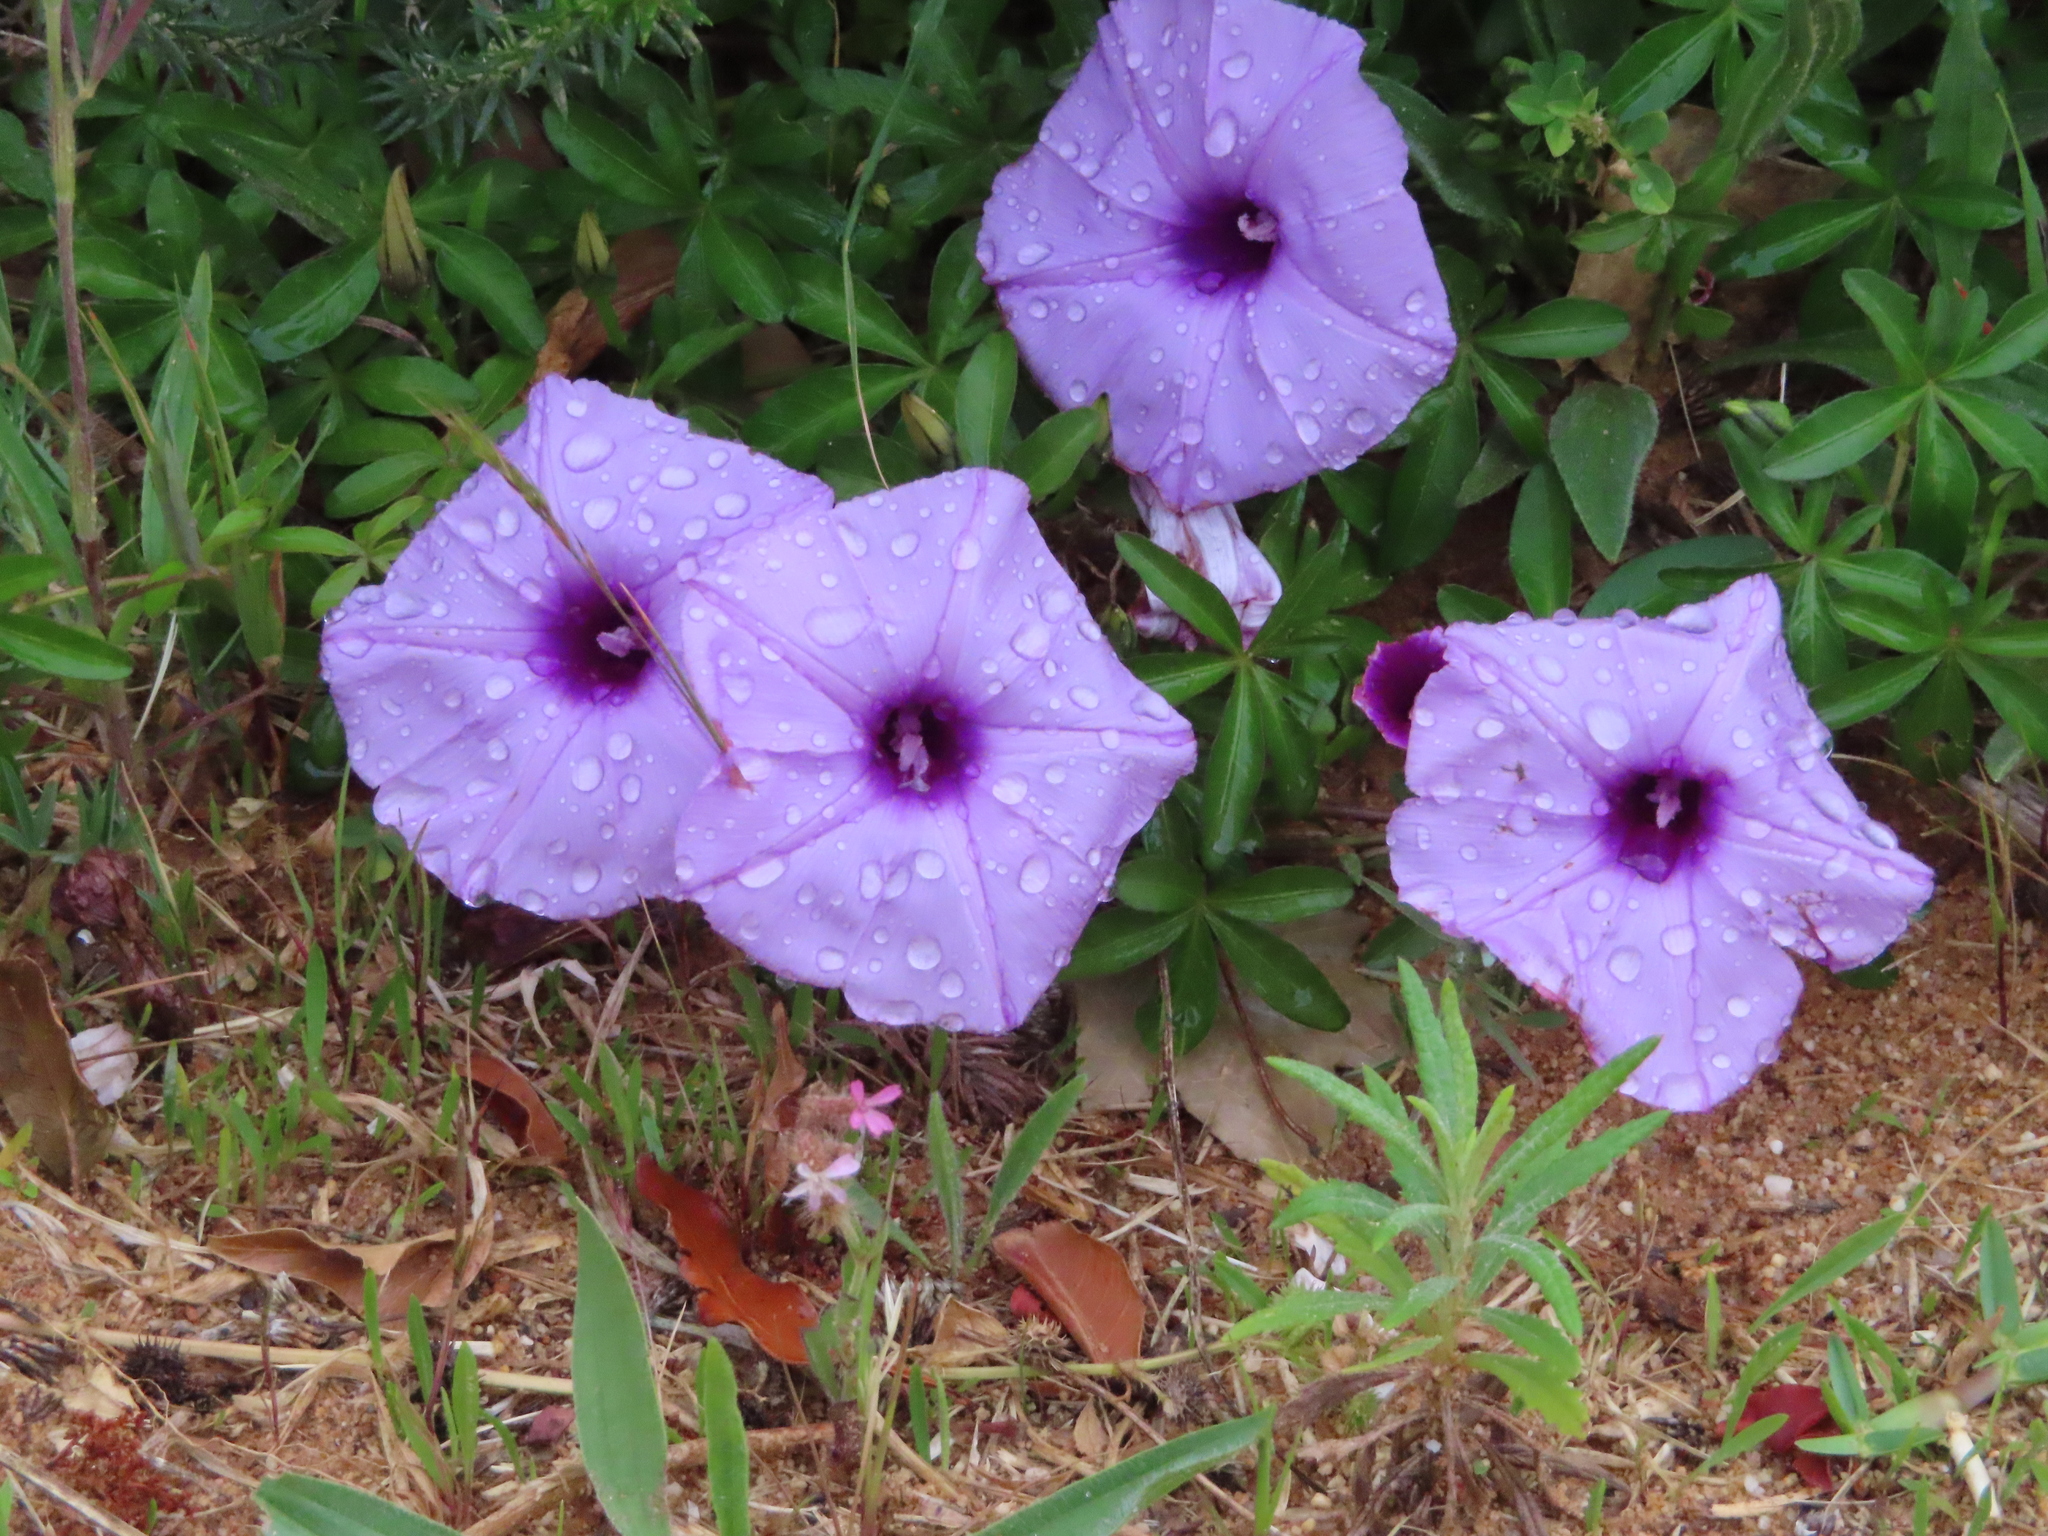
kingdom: Plantae
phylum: Tracheophyta
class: Magnoliopsida
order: Solanales
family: Convolvulaceae
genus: Ipomoea
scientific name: Ipomoea cairica
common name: Mile a minute vine
